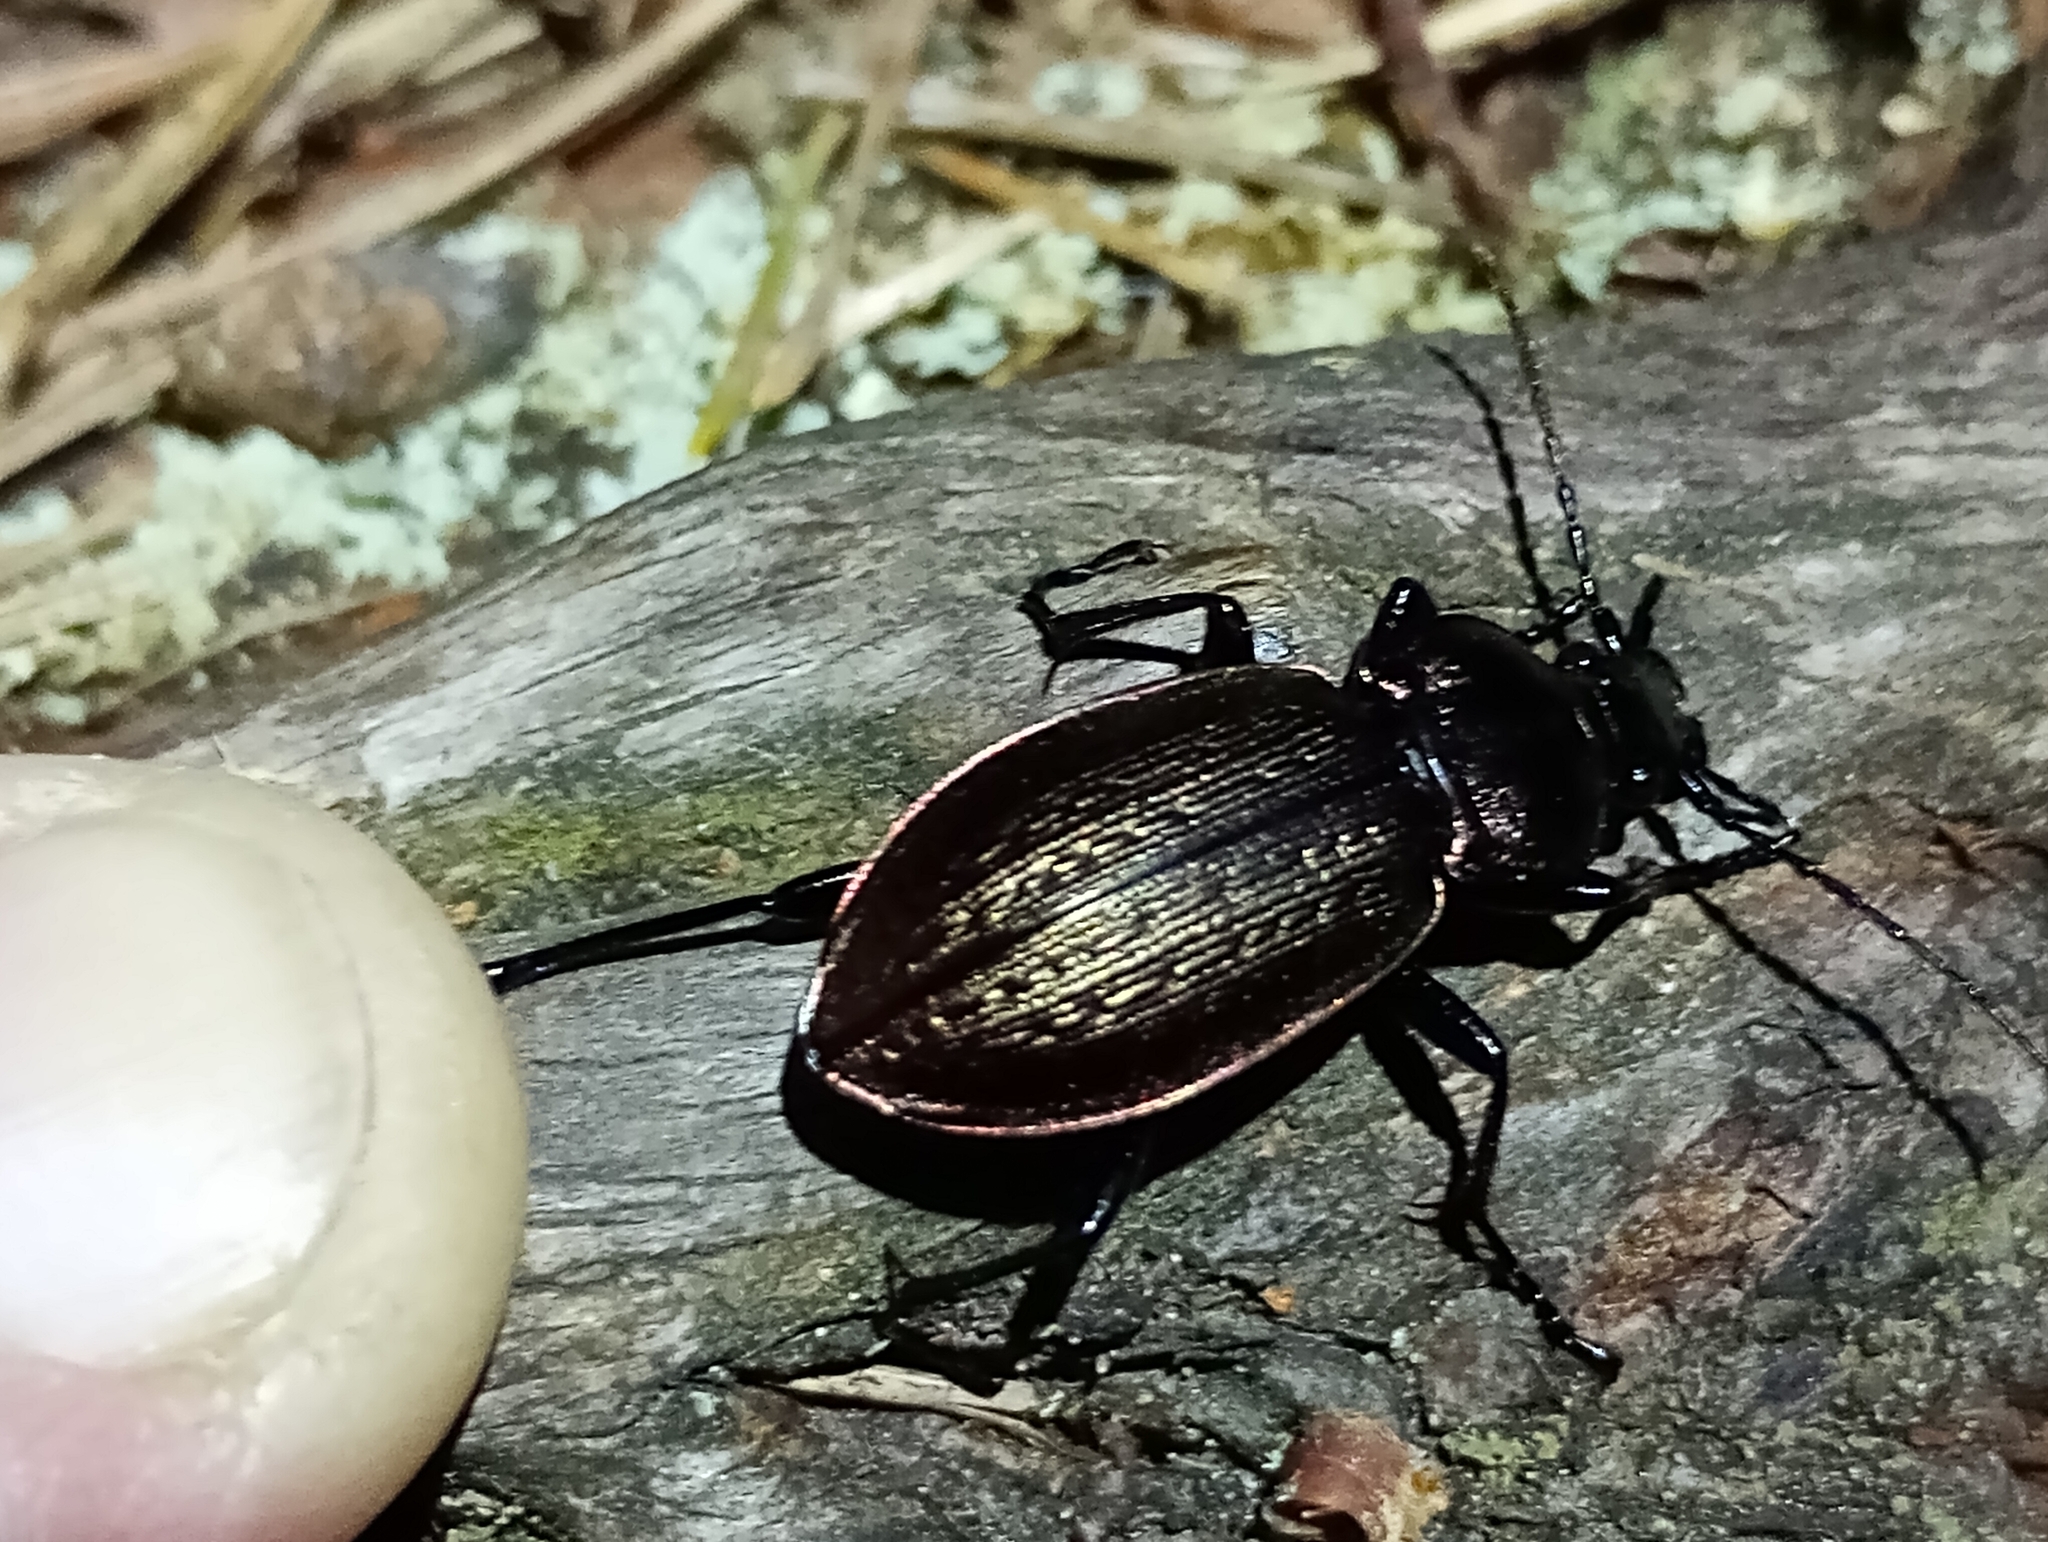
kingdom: Animalia
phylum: Arthropoda
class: Insecta
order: Coleoptera
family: Carabidae
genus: Carabus
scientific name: Carabus arvensis
